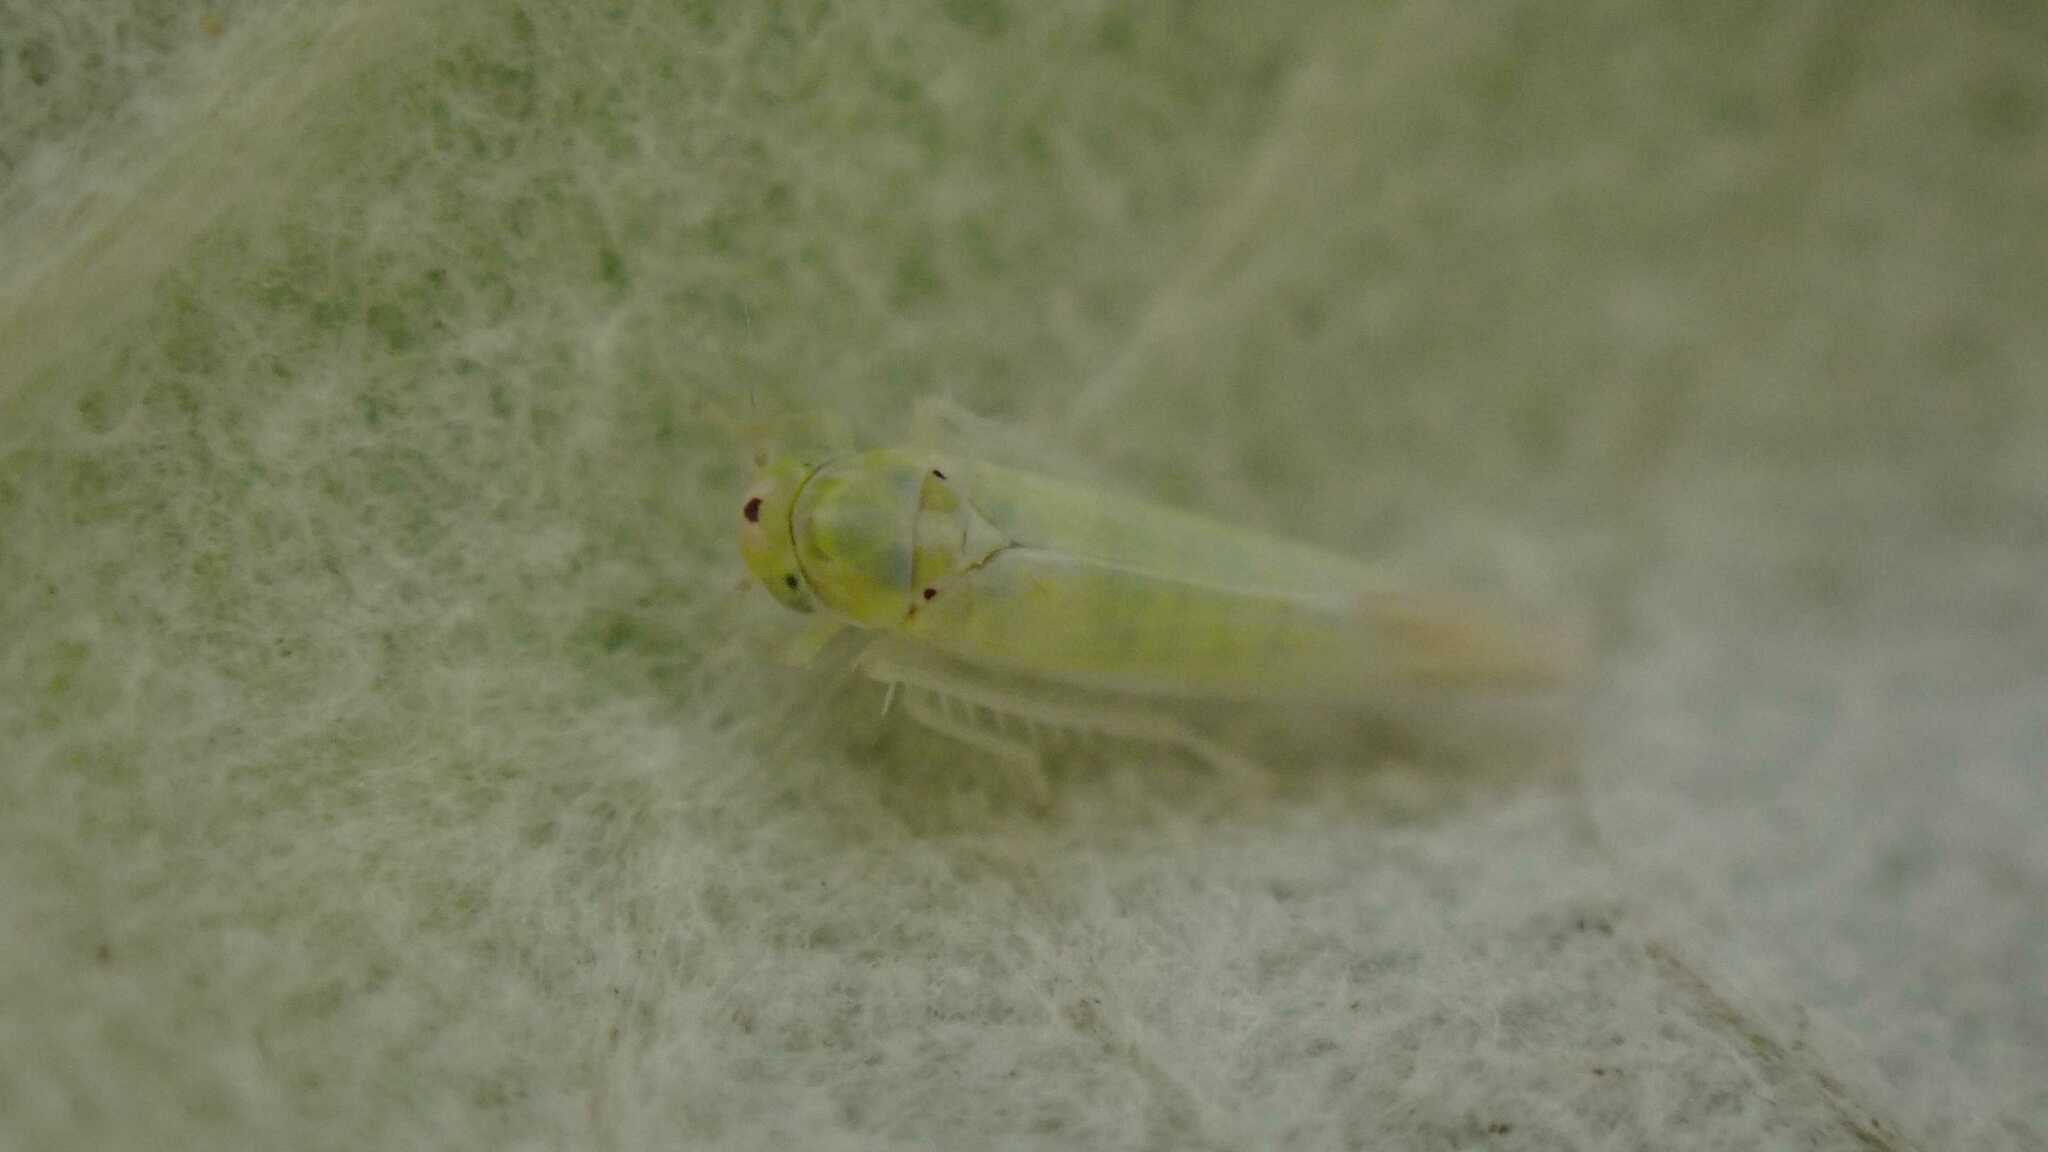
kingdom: Animalia
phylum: Arthropoda
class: Insecta
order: Hemiptera
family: Cicadellidae
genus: Zygina
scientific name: Zygina nivea
